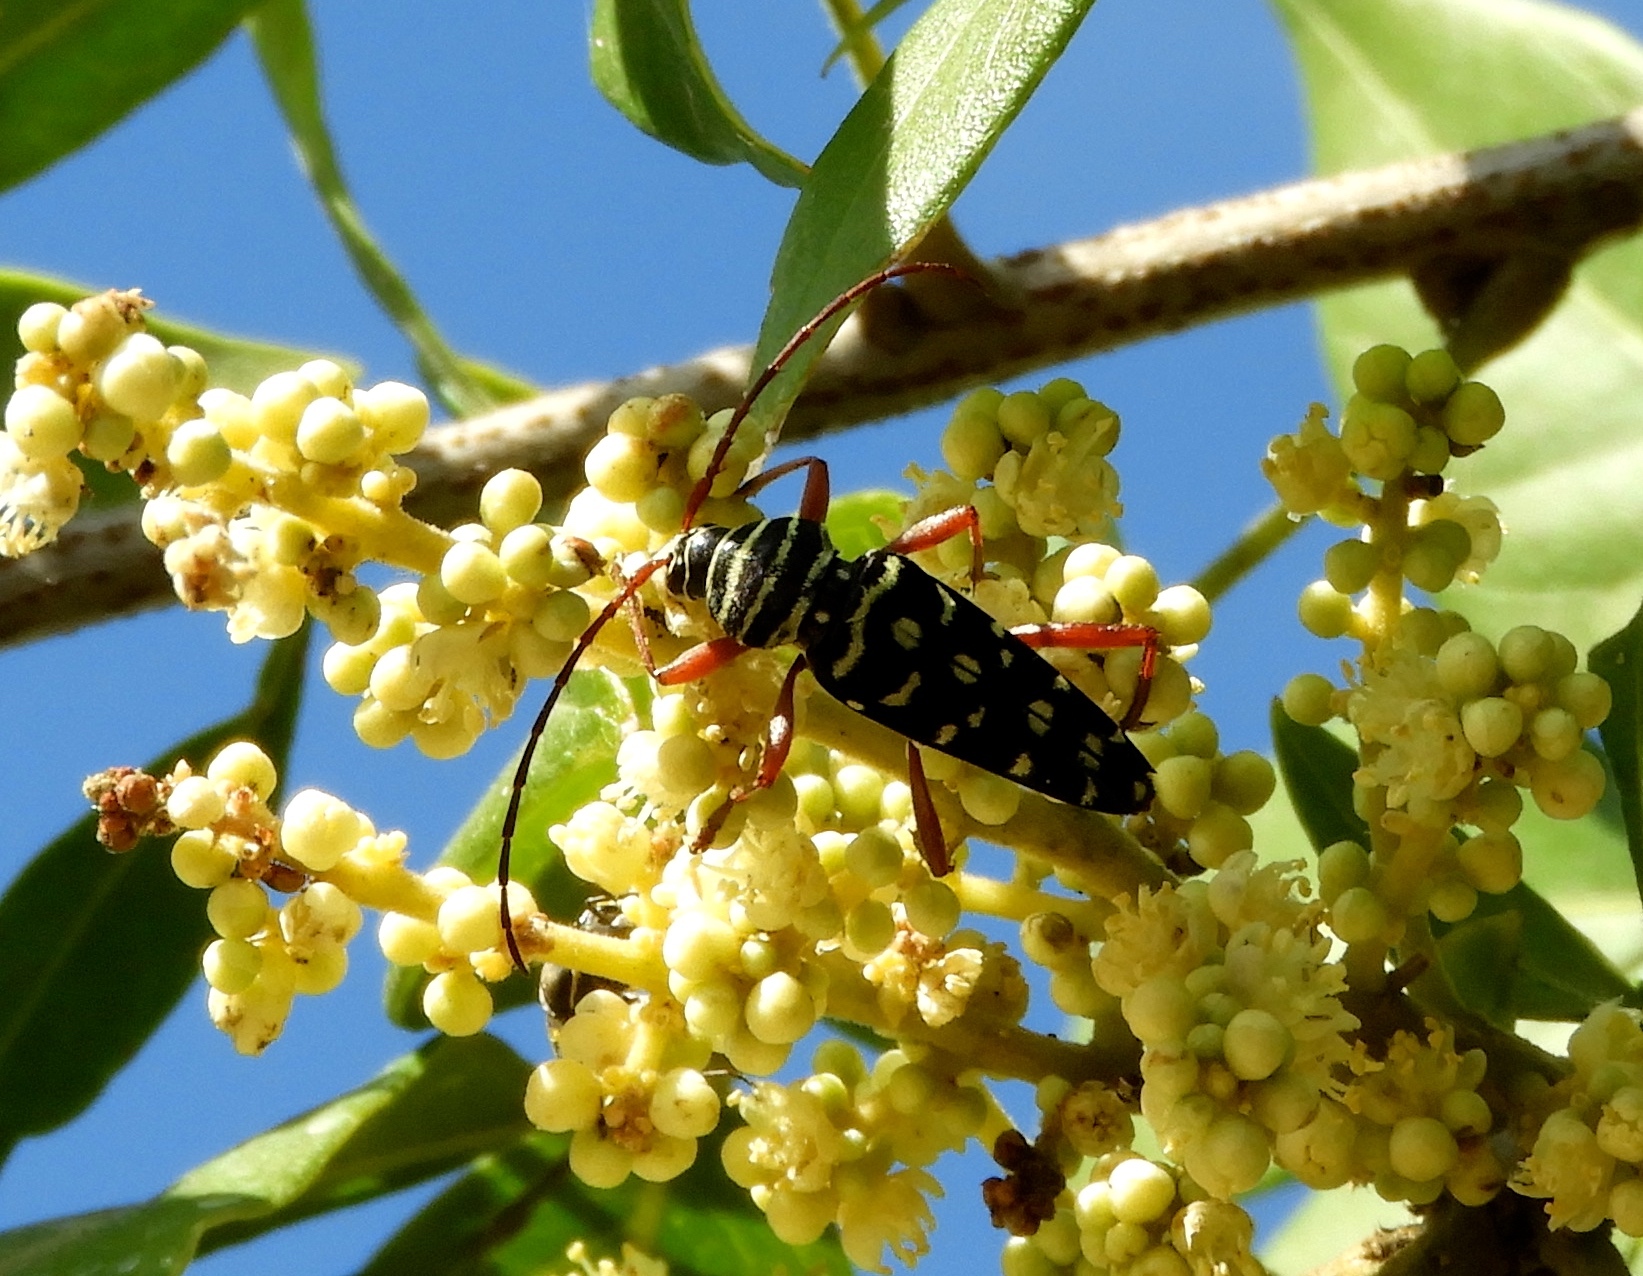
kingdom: Animalia
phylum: Arthropoda
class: Insecta
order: Coleoptera
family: Cerambycidae
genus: Placosternus
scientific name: Placosternus difficilis
